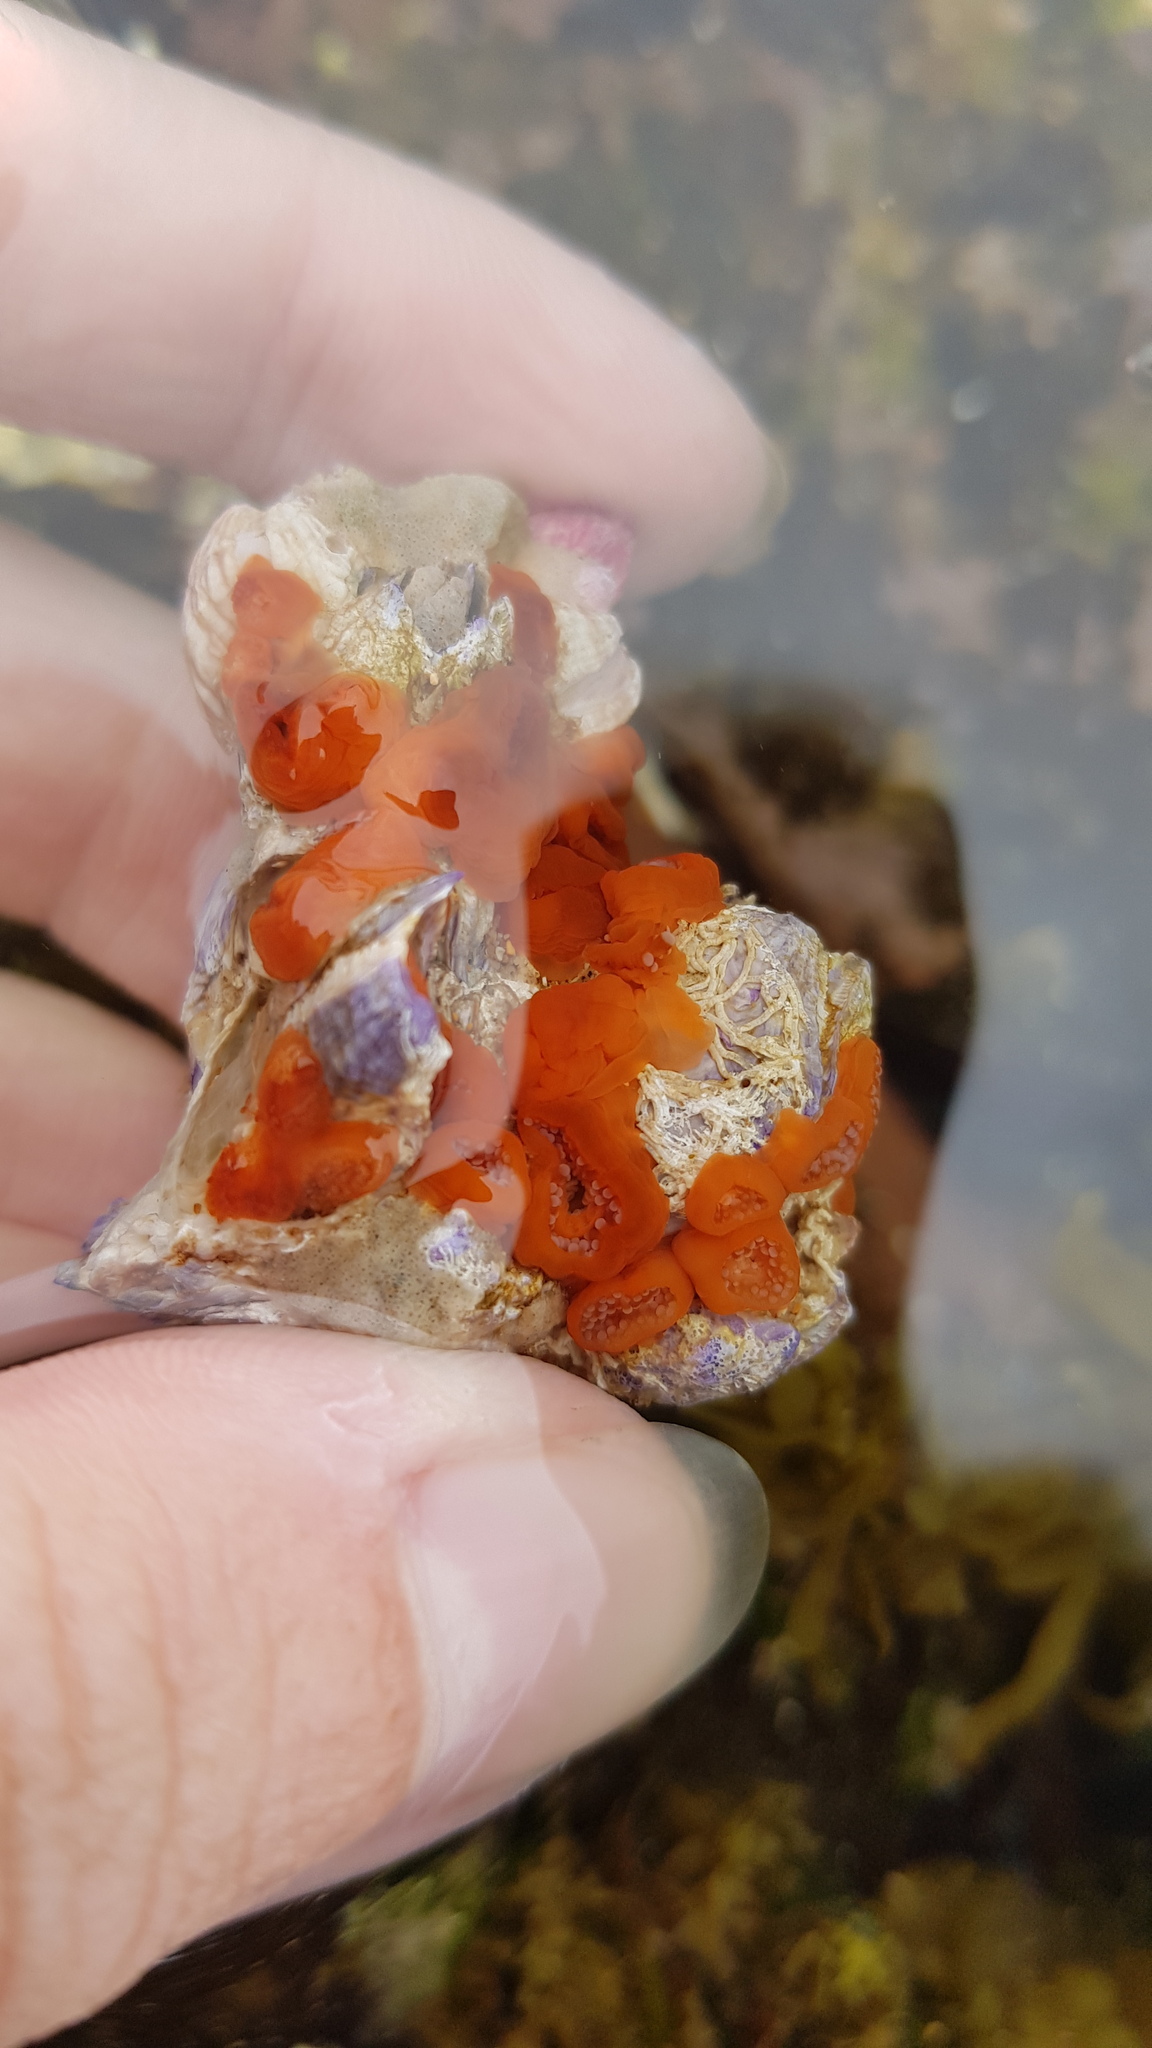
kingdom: Animalia
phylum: Cnidaria
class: Anthozoa
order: Corallimorpharia
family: Corallimorphidae
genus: Corynactis
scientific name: Corynactis australis
